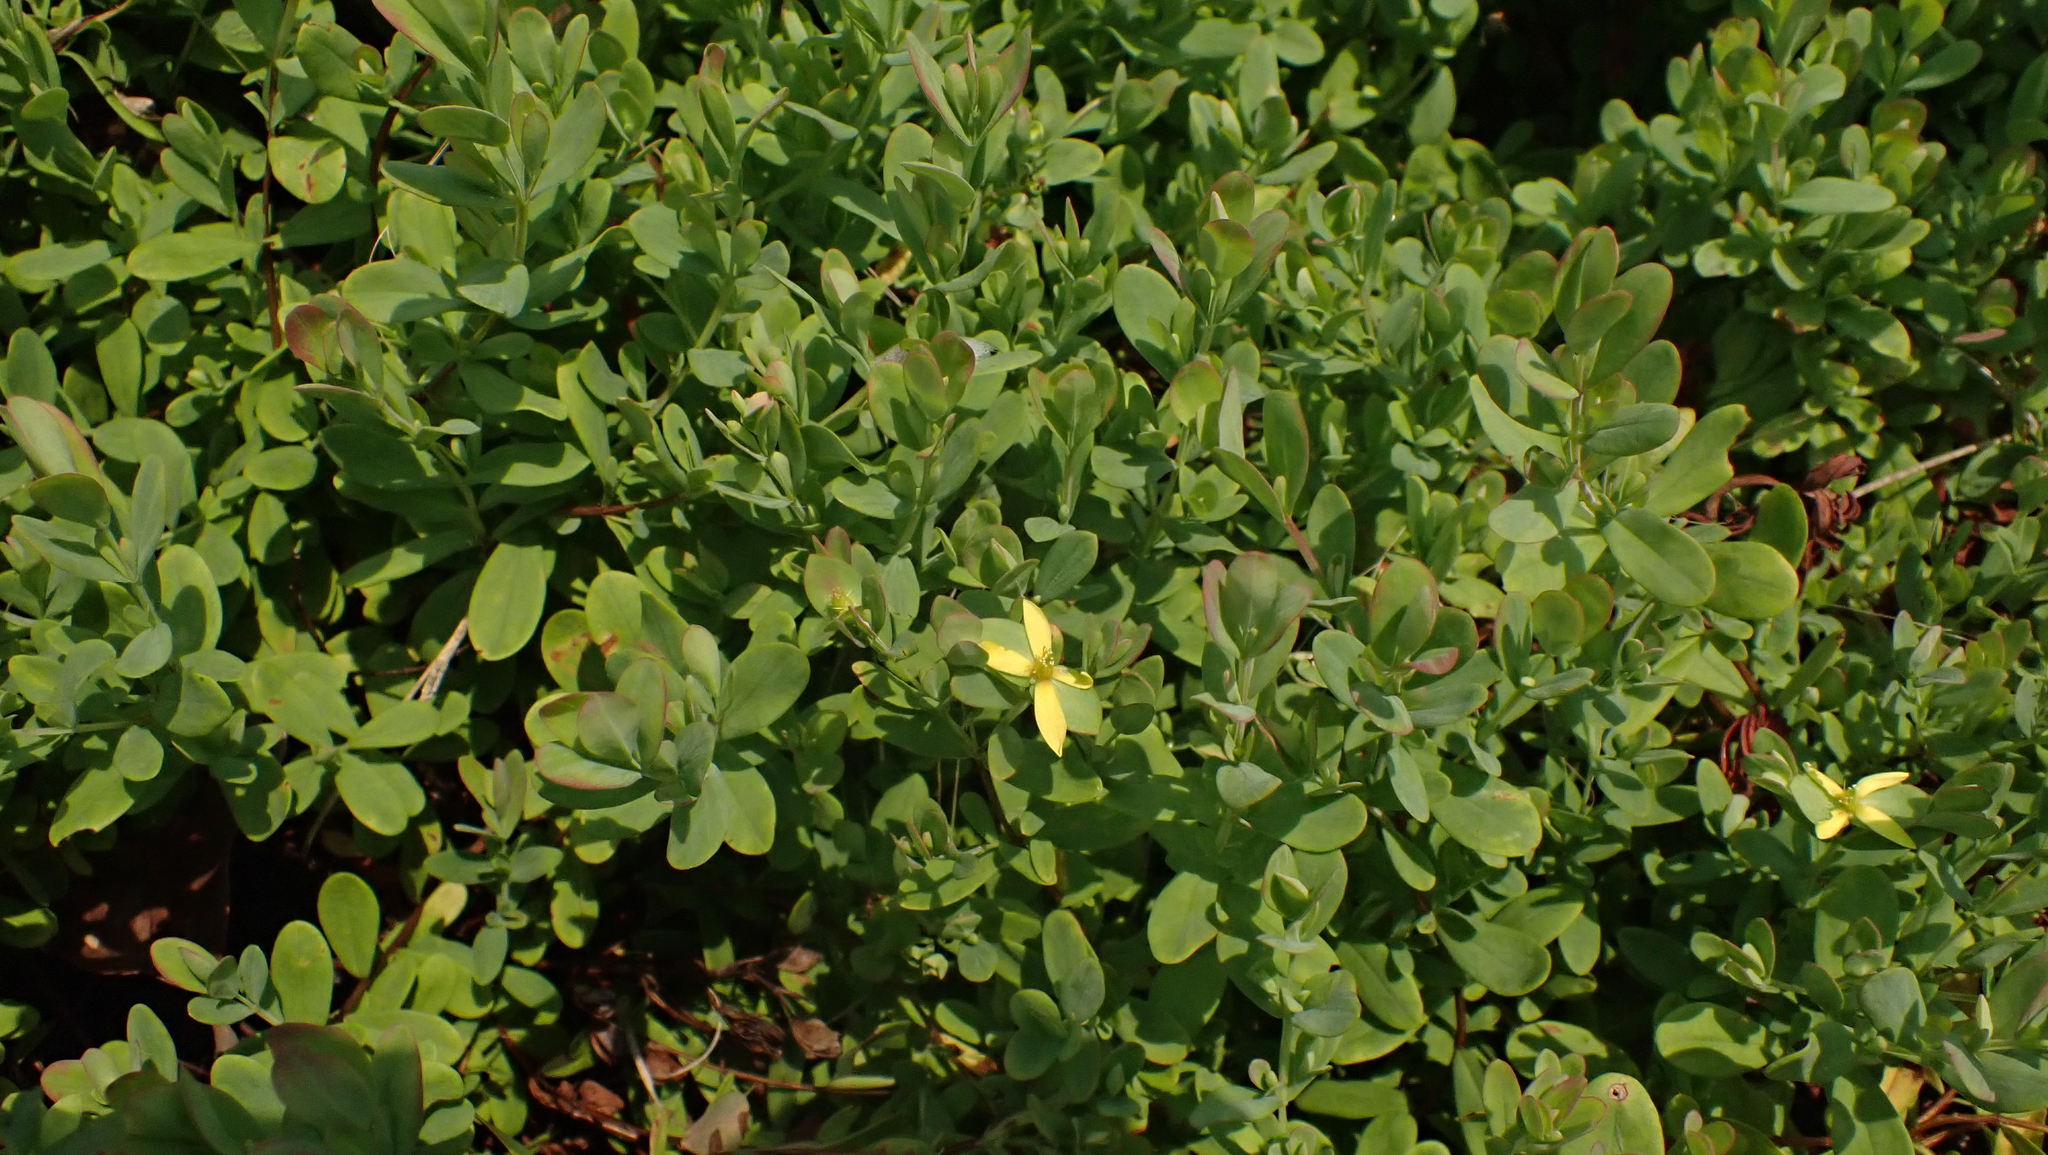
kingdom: Plantae
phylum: Tracheophyta
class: Magnoliopsida
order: Malpighiales
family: Hypericaceae
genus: Hypericum
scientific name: Hypericum hypericoides
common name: St. andrew's cross
